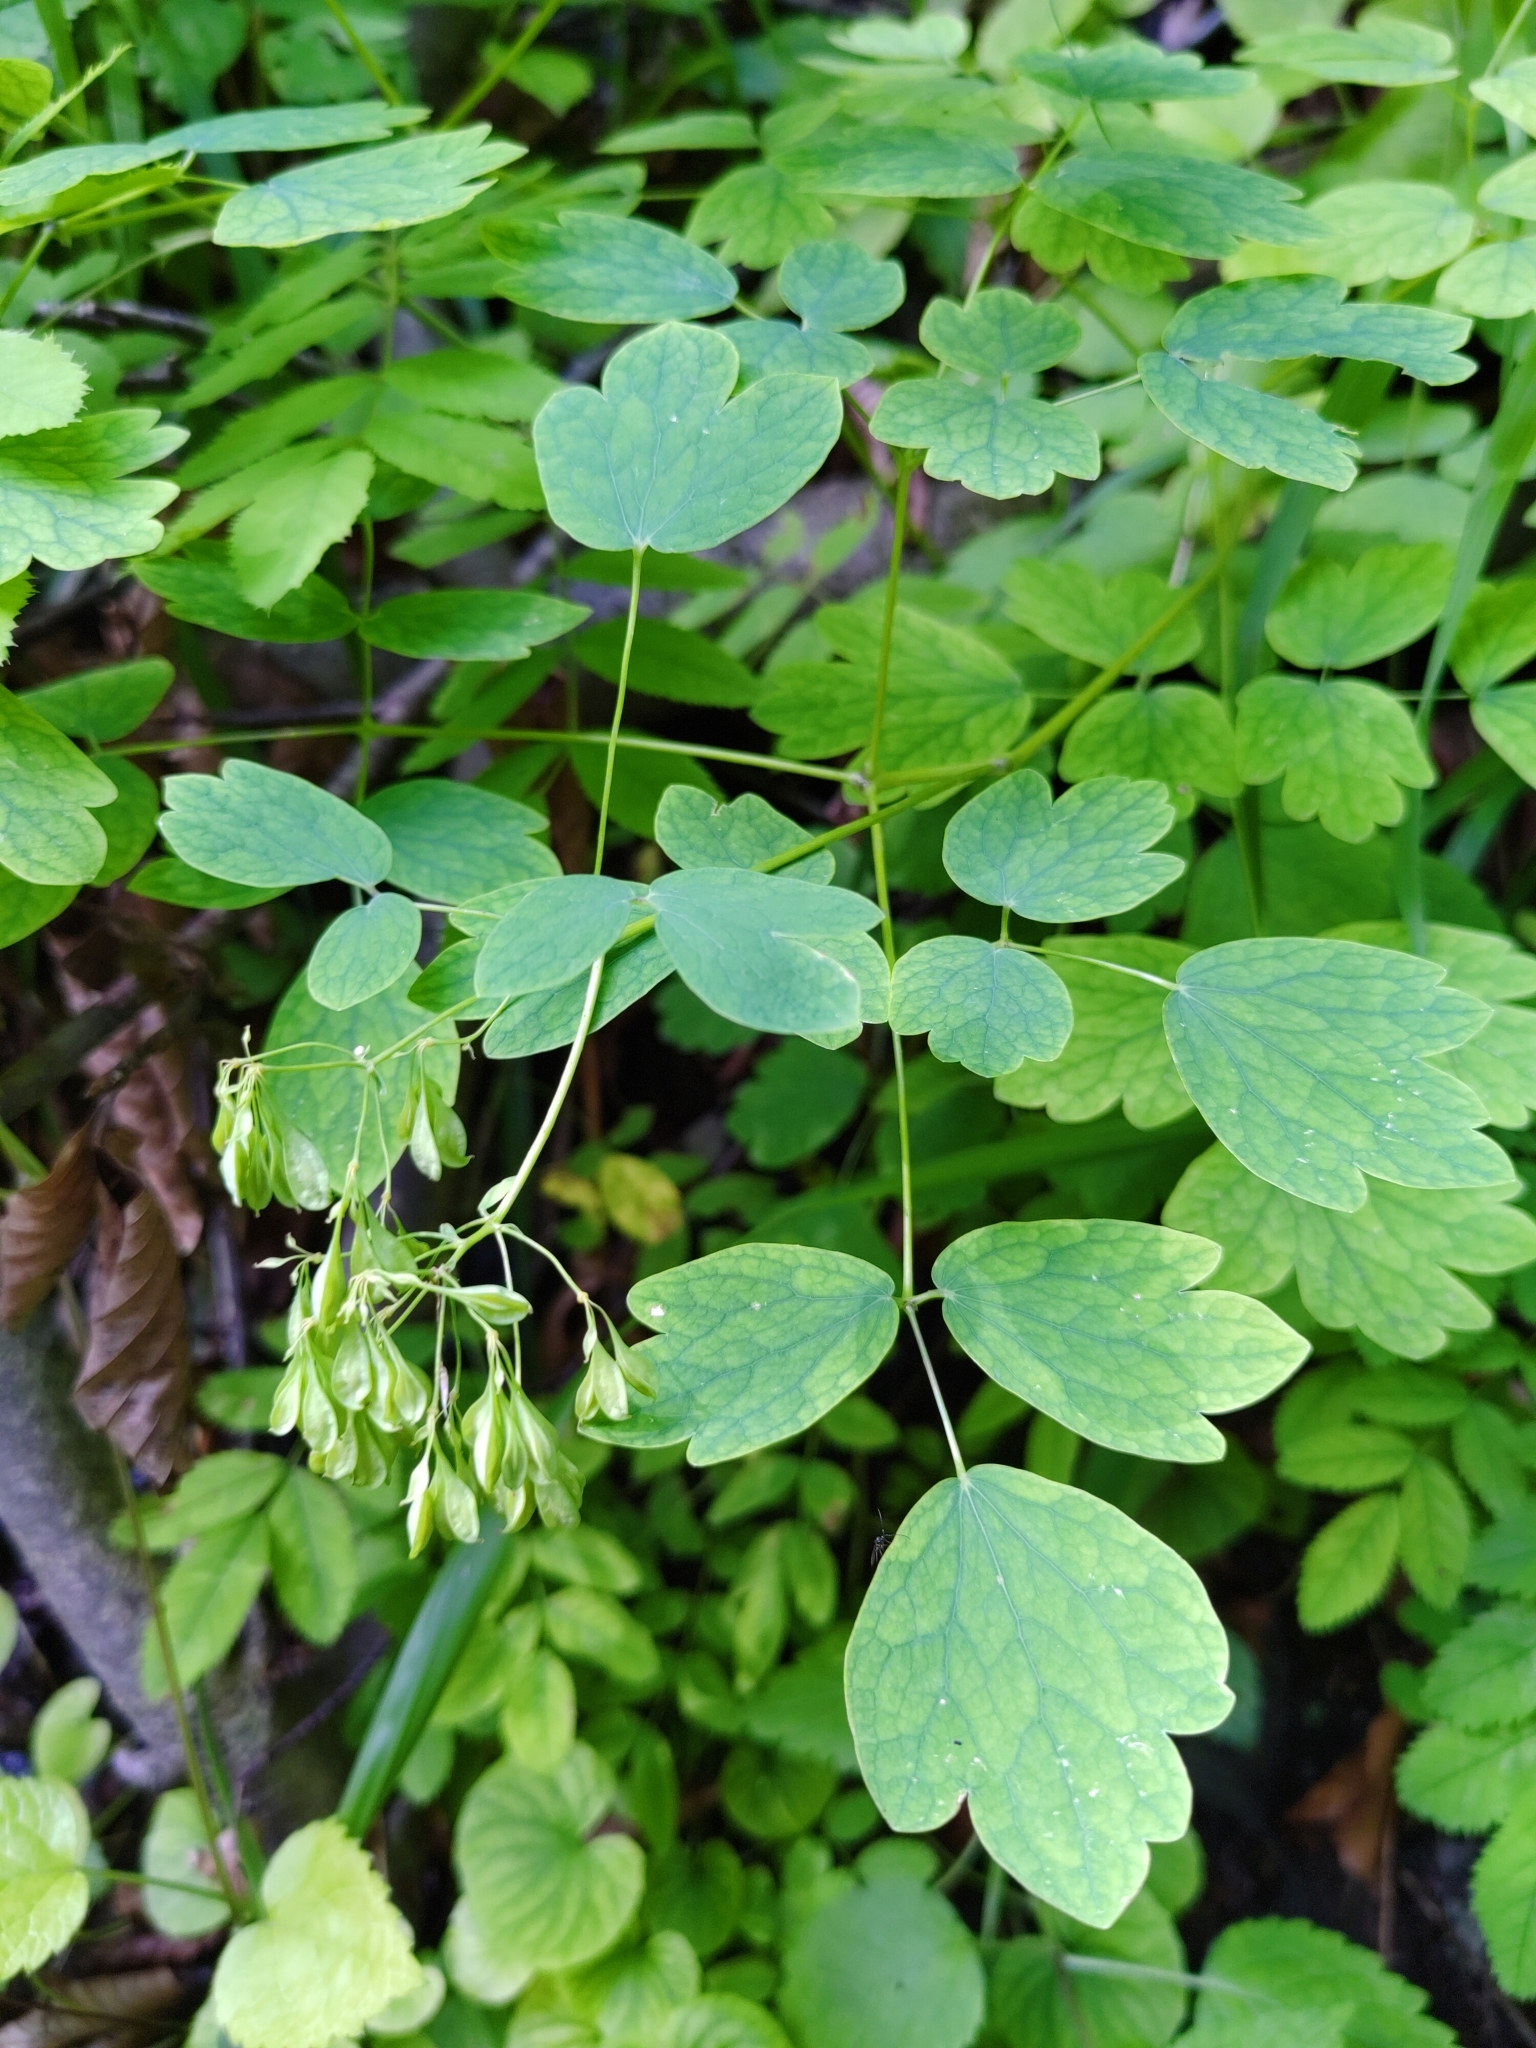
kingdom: Plantae
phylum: Tracheophyta
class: Magnoliopsida
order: Ranunculales
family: Ranunculaceae
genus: Thalictrum
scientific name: Thalictrum aquilegiifolium
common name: French meadow-rue
